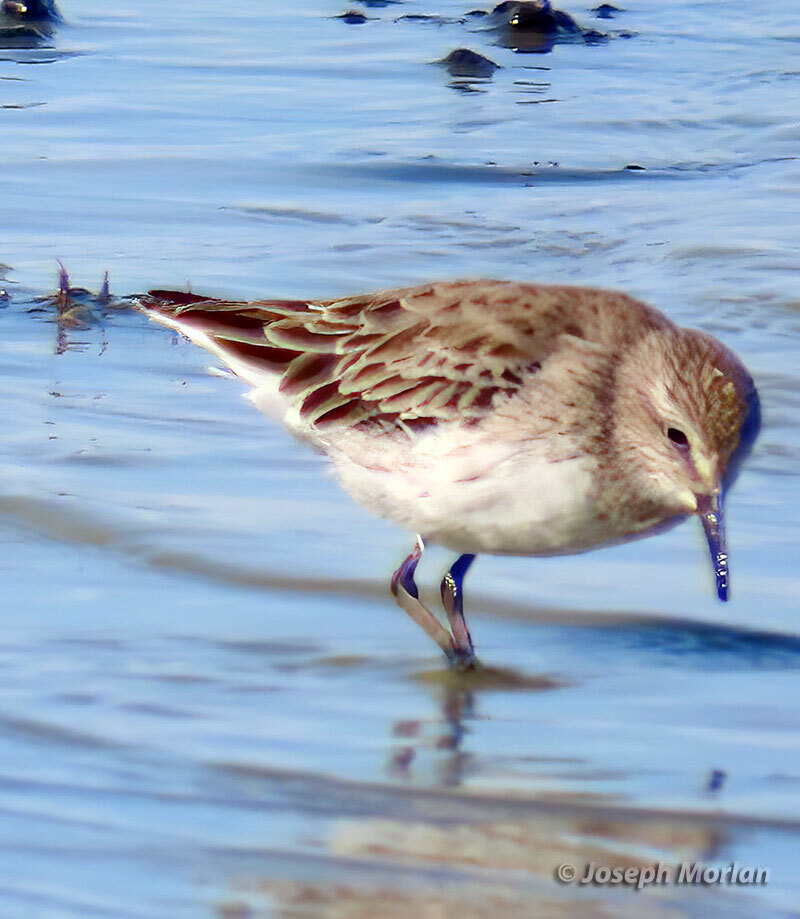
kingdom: Animalia
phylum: Chordata
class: Aves
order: Charadriiformes
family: Scolopacidae
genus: Calidris
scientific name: Calidris bairdii
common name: Baird's sandpiper
